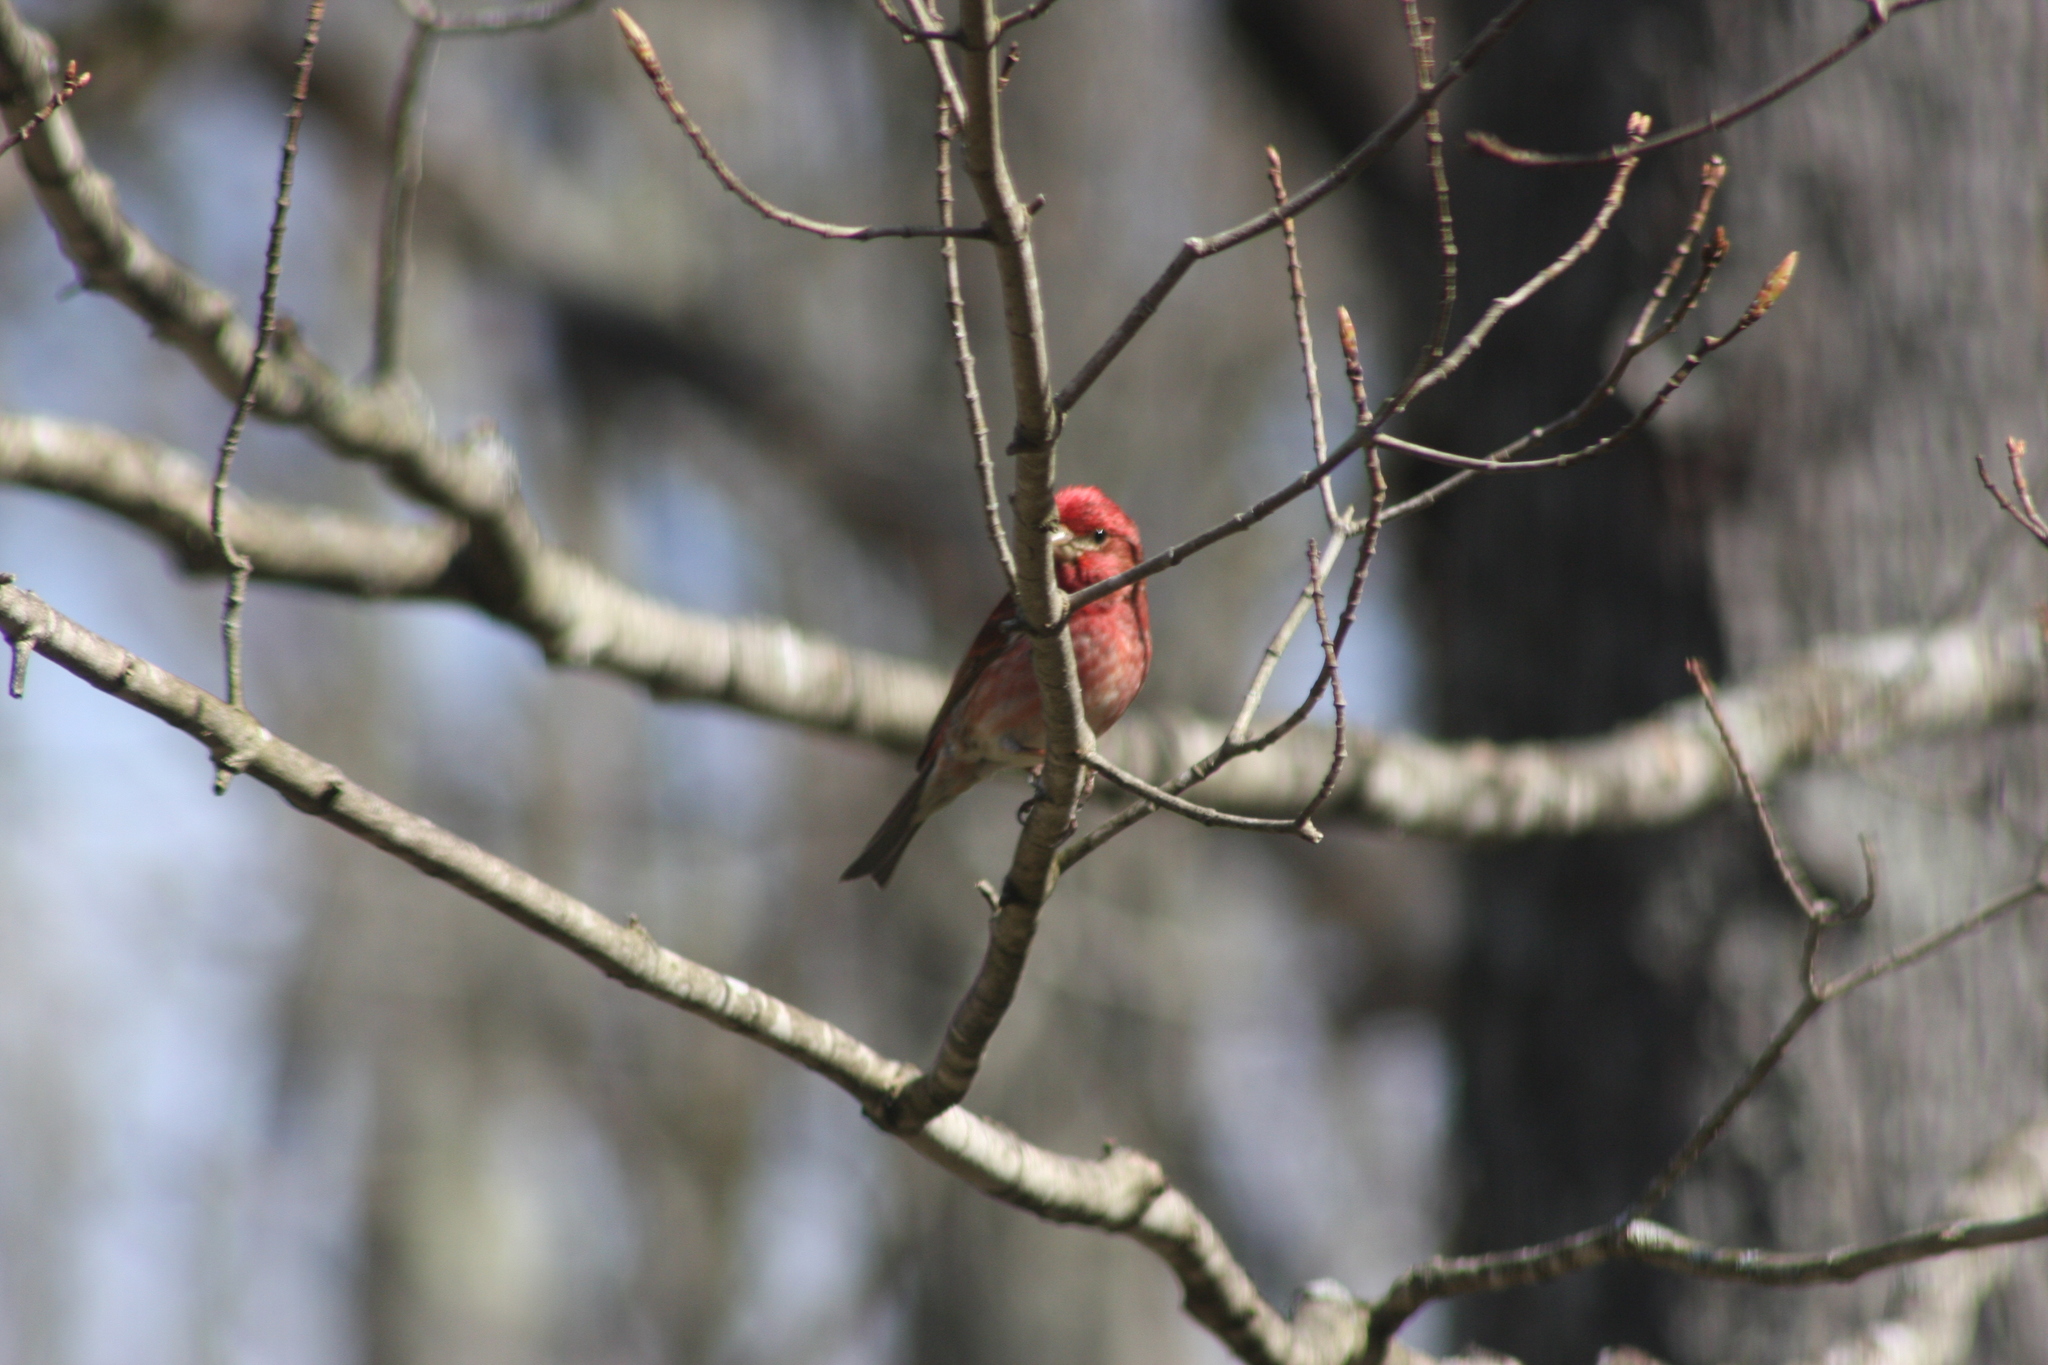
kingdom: Animalia
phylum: Chordata
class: Aves
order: Passeriformes
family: Fringillidae
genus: Haemorhous
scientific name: Haemorhous purpureus
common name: Purple finch
